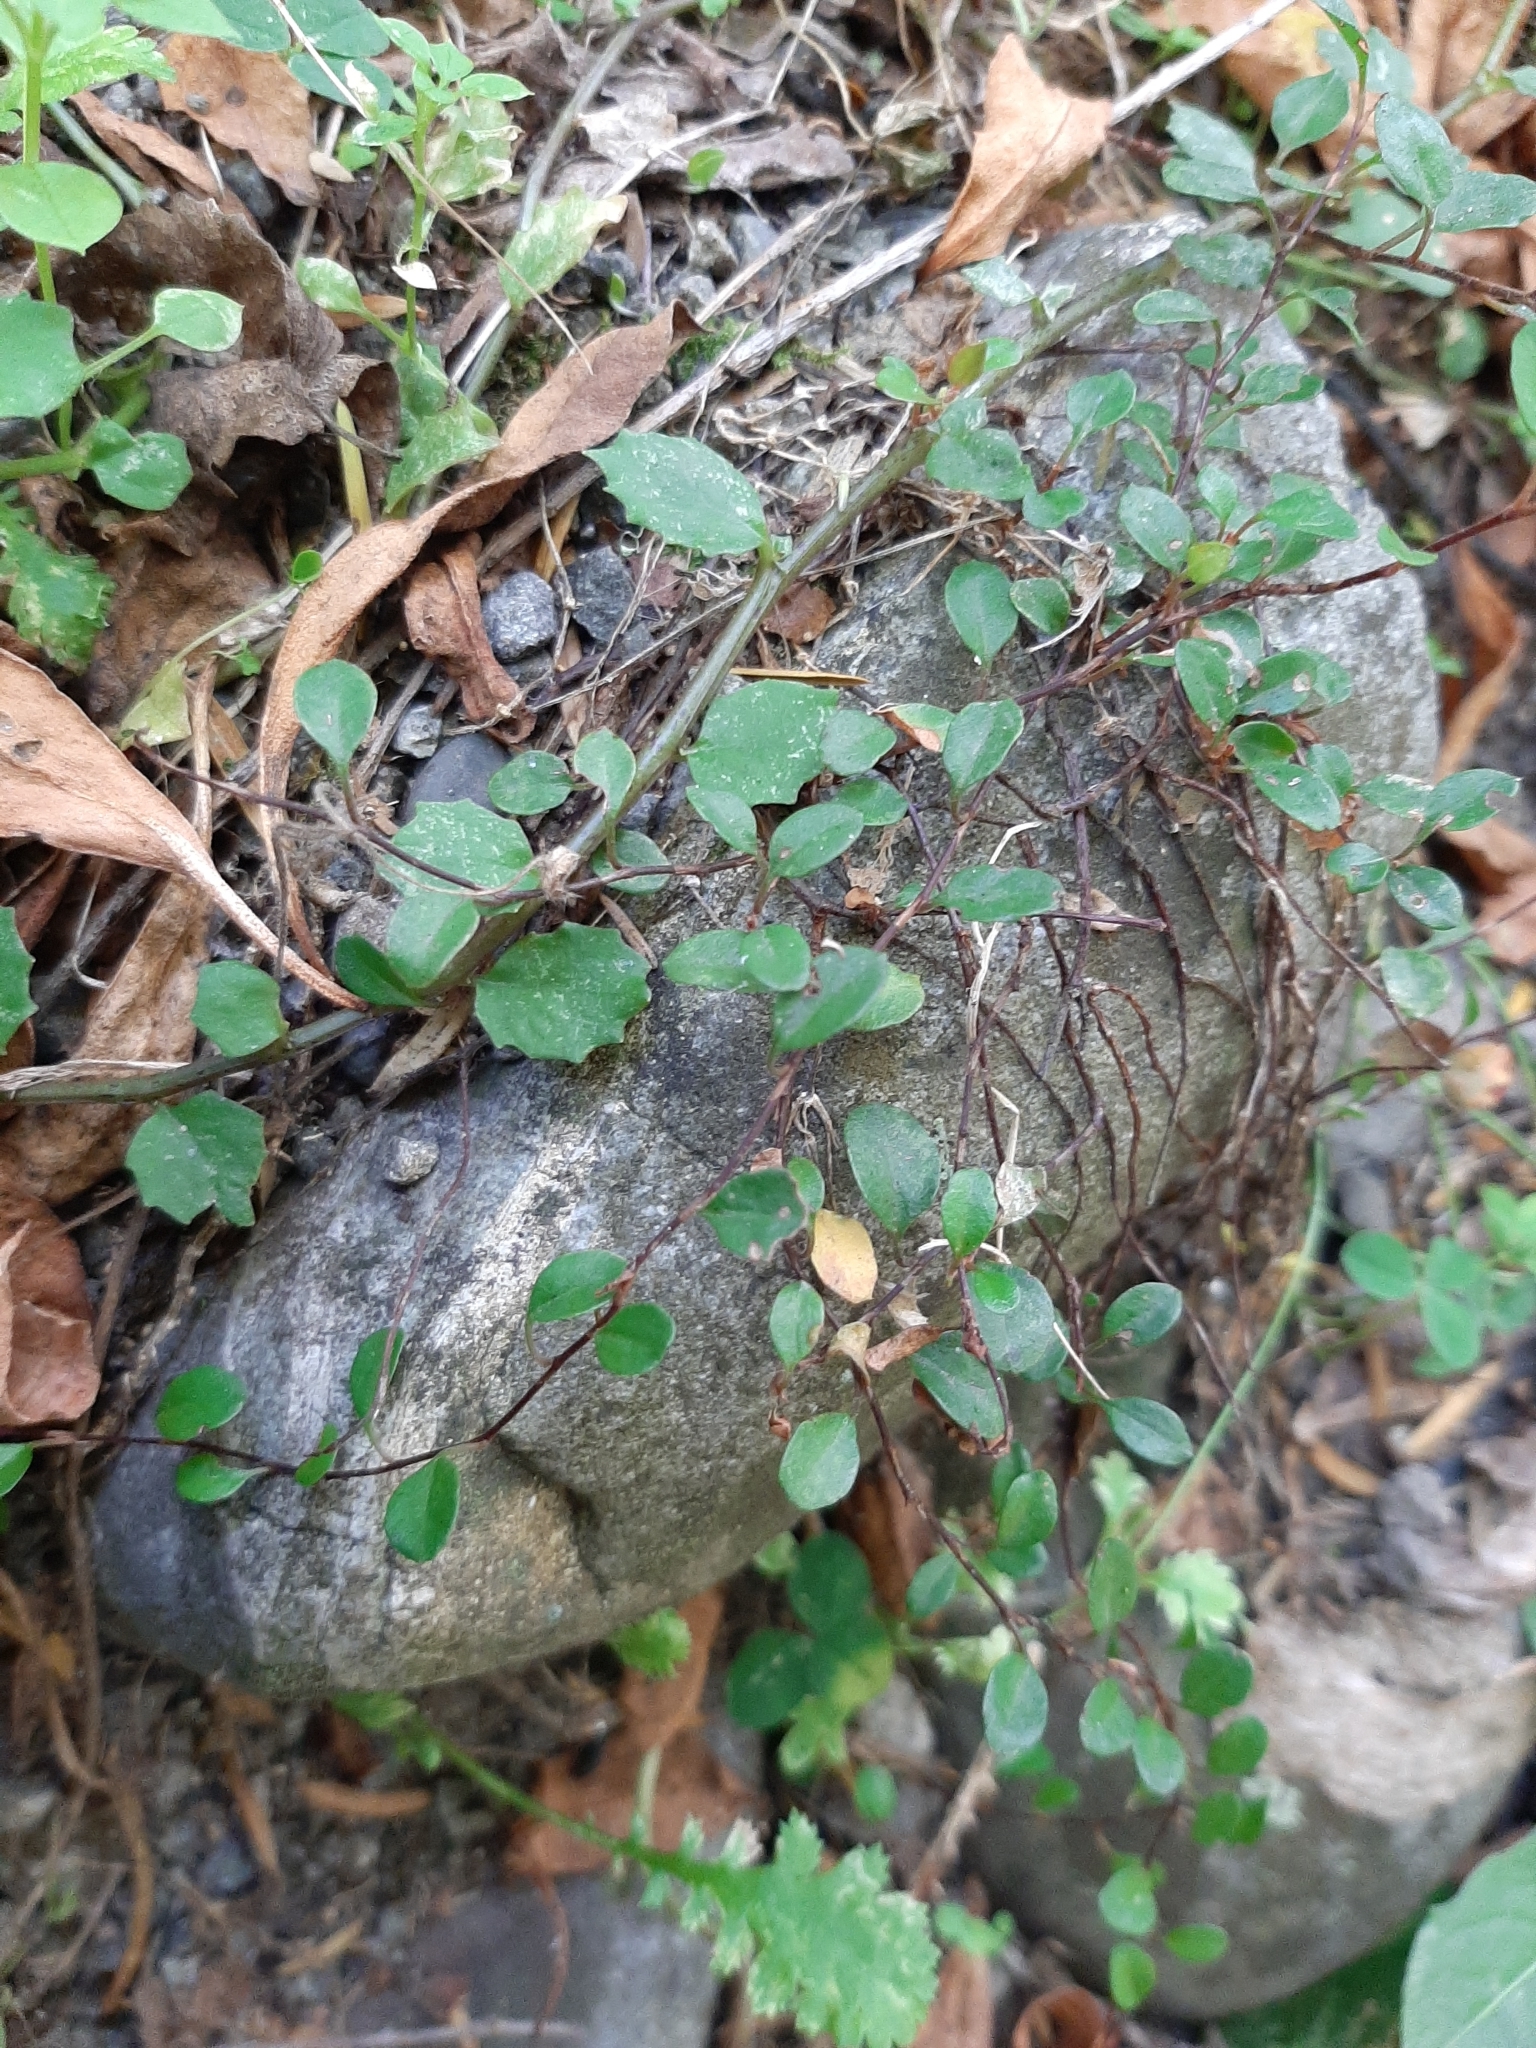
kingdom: Plantae
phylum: Tracheophyta
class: Magnoliopsida
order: Caryophyllales
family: Polygonaceae
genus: Muehlenbeckia
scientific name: Muehlenbeckia axillaris
